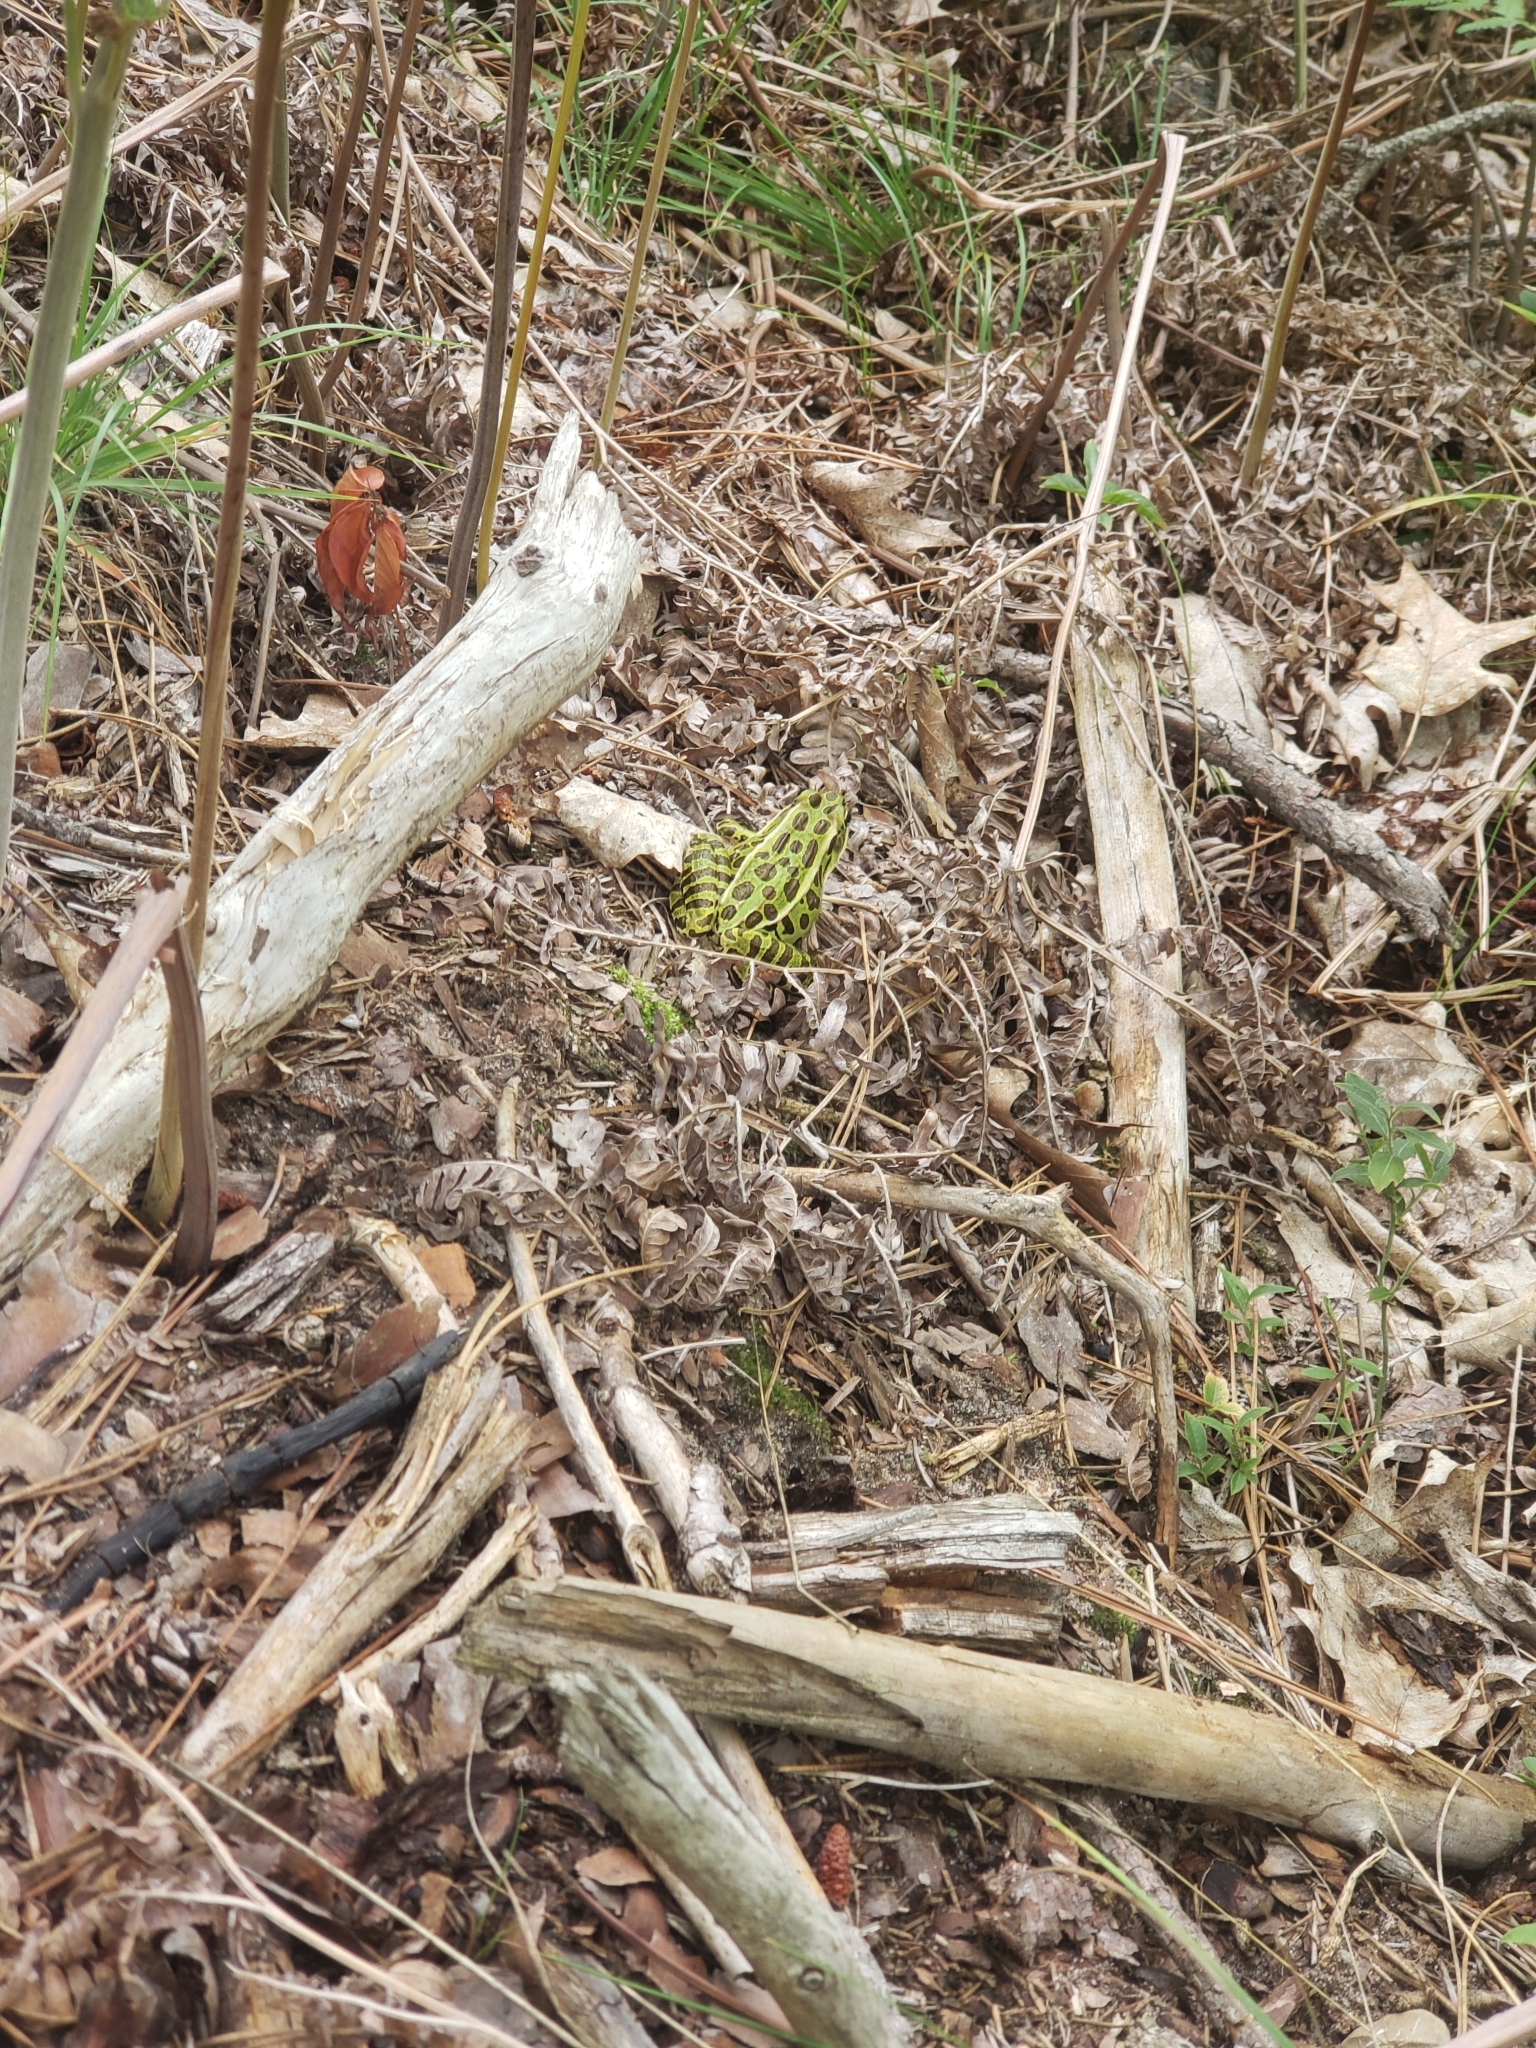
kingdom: Animalia
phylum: Chordata
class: Amphibia
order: Anura
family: Ranidae
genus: Lithobates
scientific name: Lithobates pipiens
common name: Northern leopard frog
